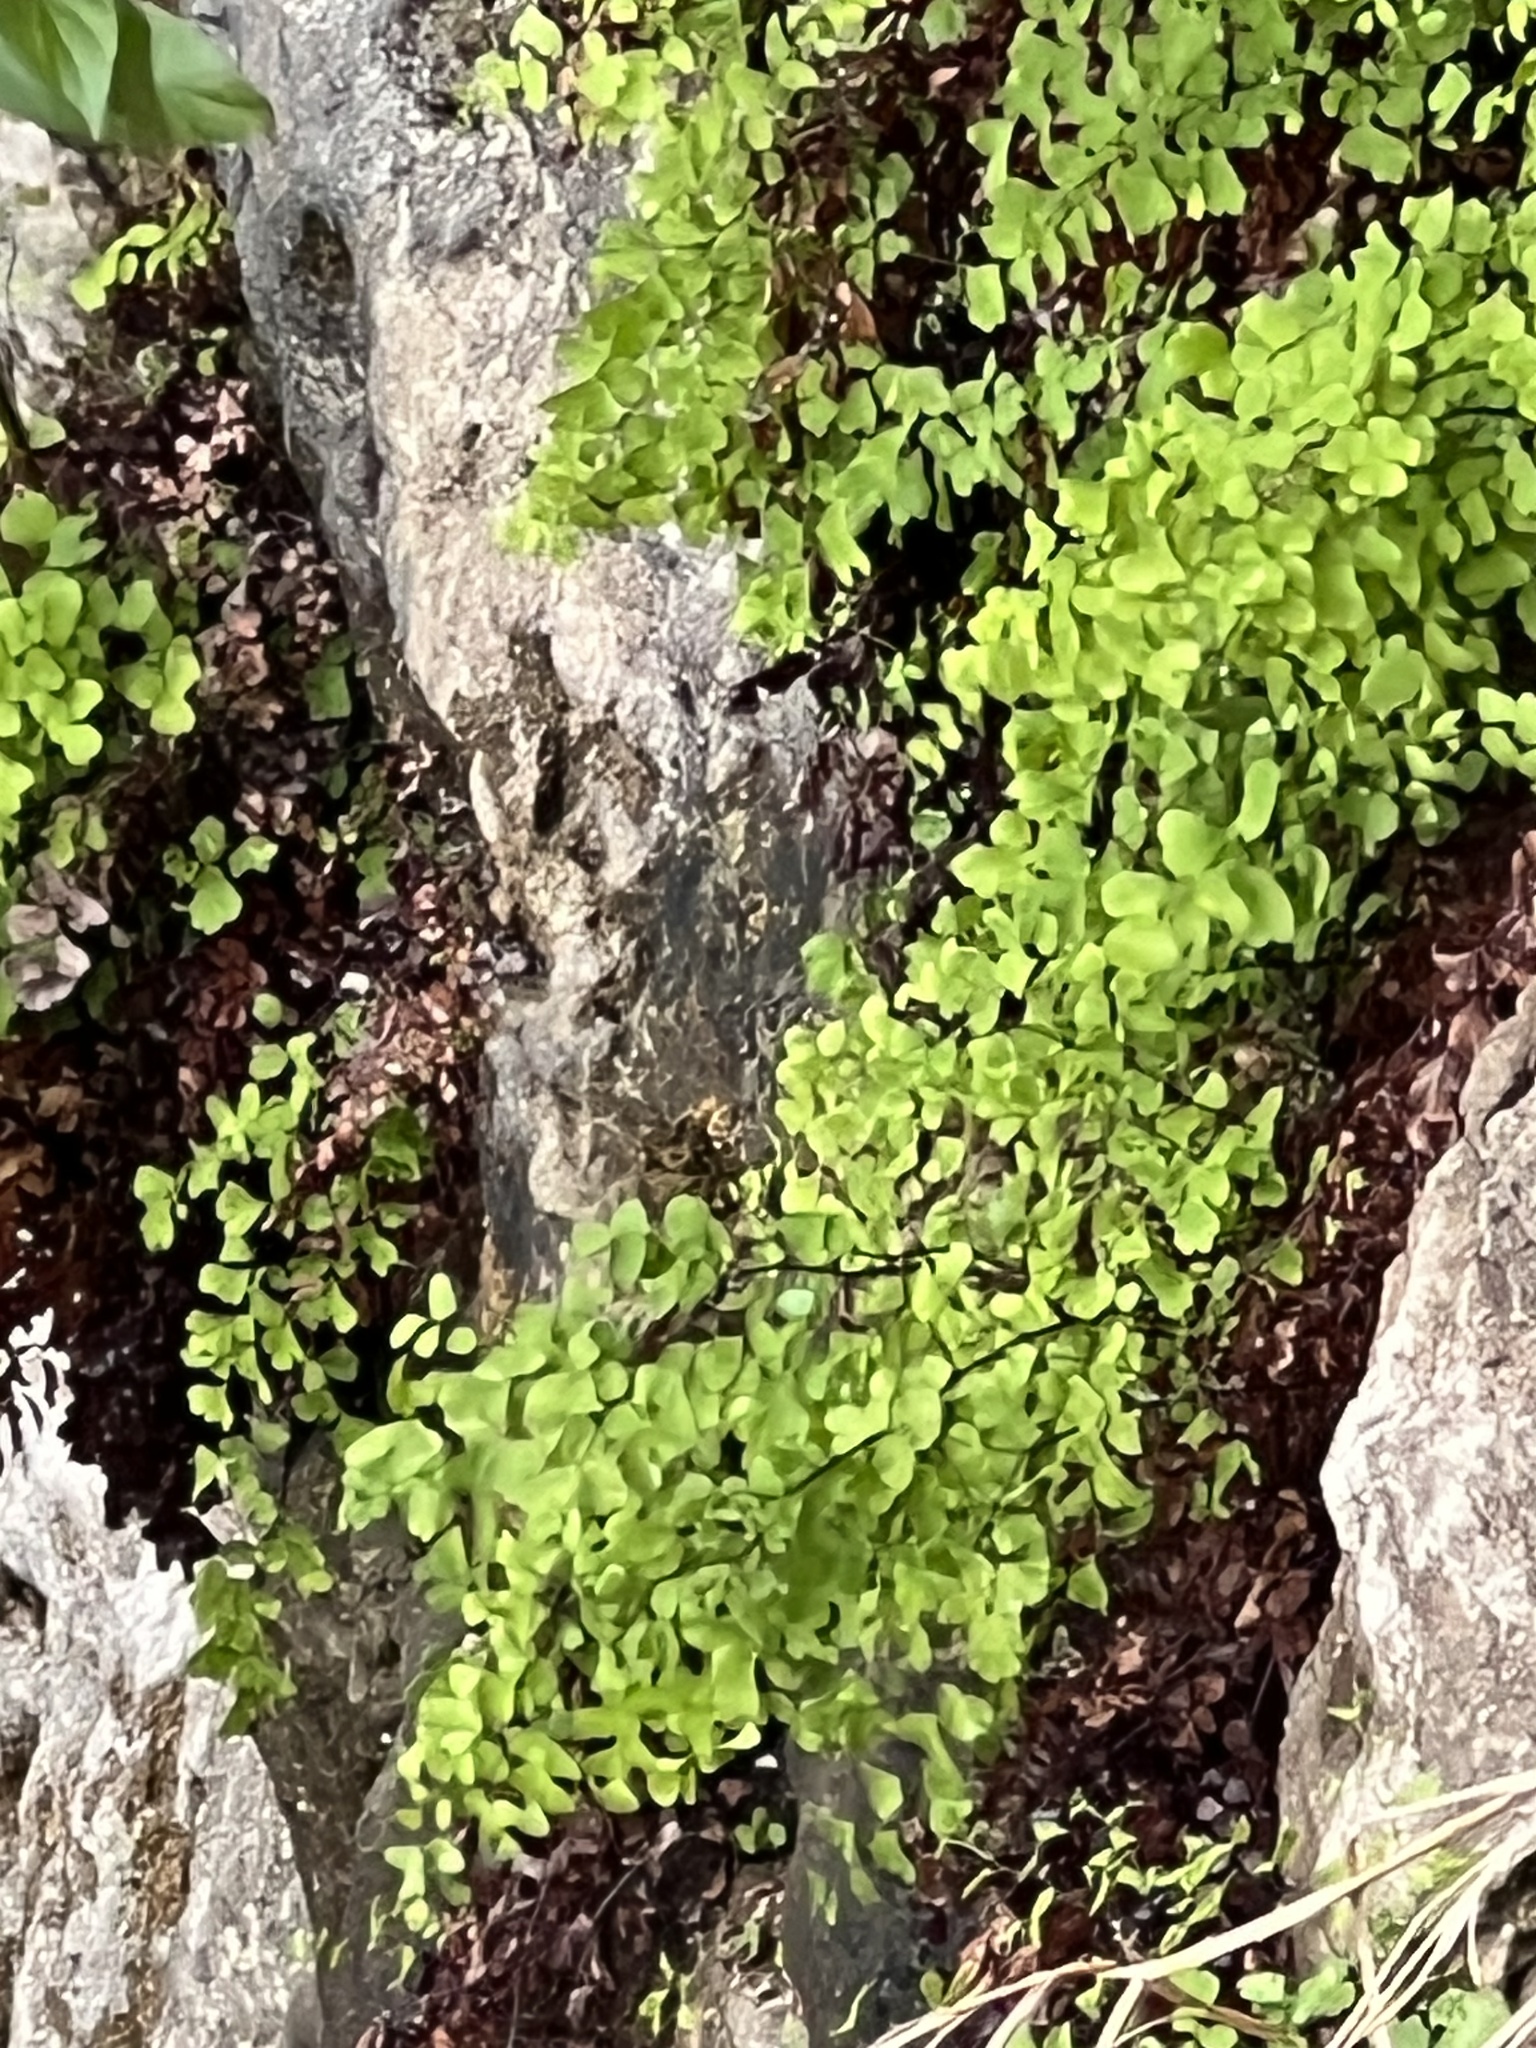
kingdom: Plantae
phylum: Tracheophyta
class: Polypodiopsida
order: Polypodiales
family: Pteridaceae
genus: Adiantum
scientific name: Adiantum capillus-veneris
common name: Maidenhair fern
